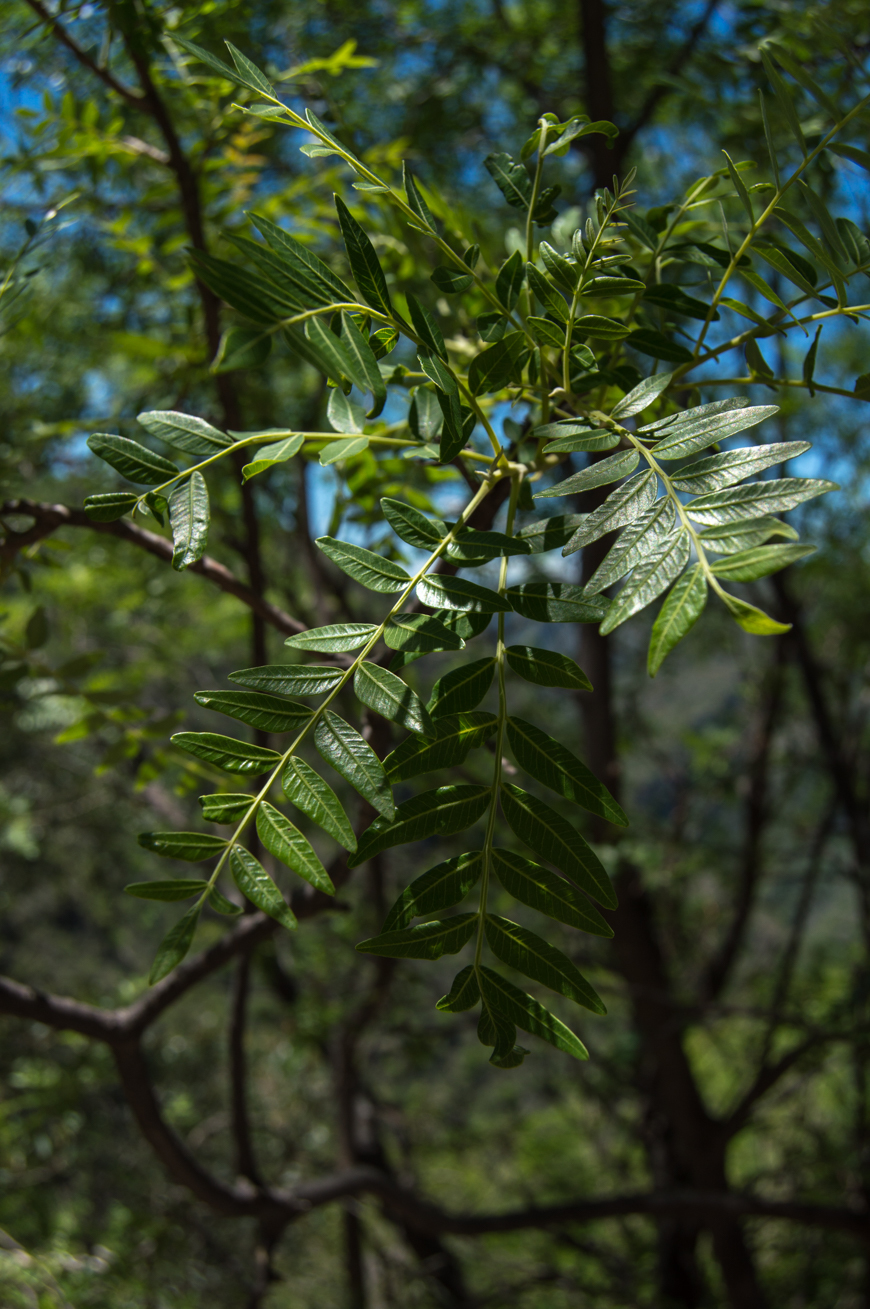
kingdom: Plantae
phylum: Tracheophyta
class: Magnoliopsida
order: Sapindales
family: Anacardiaceae
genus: Schinopsis
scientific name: Schinopsis lorentzii
